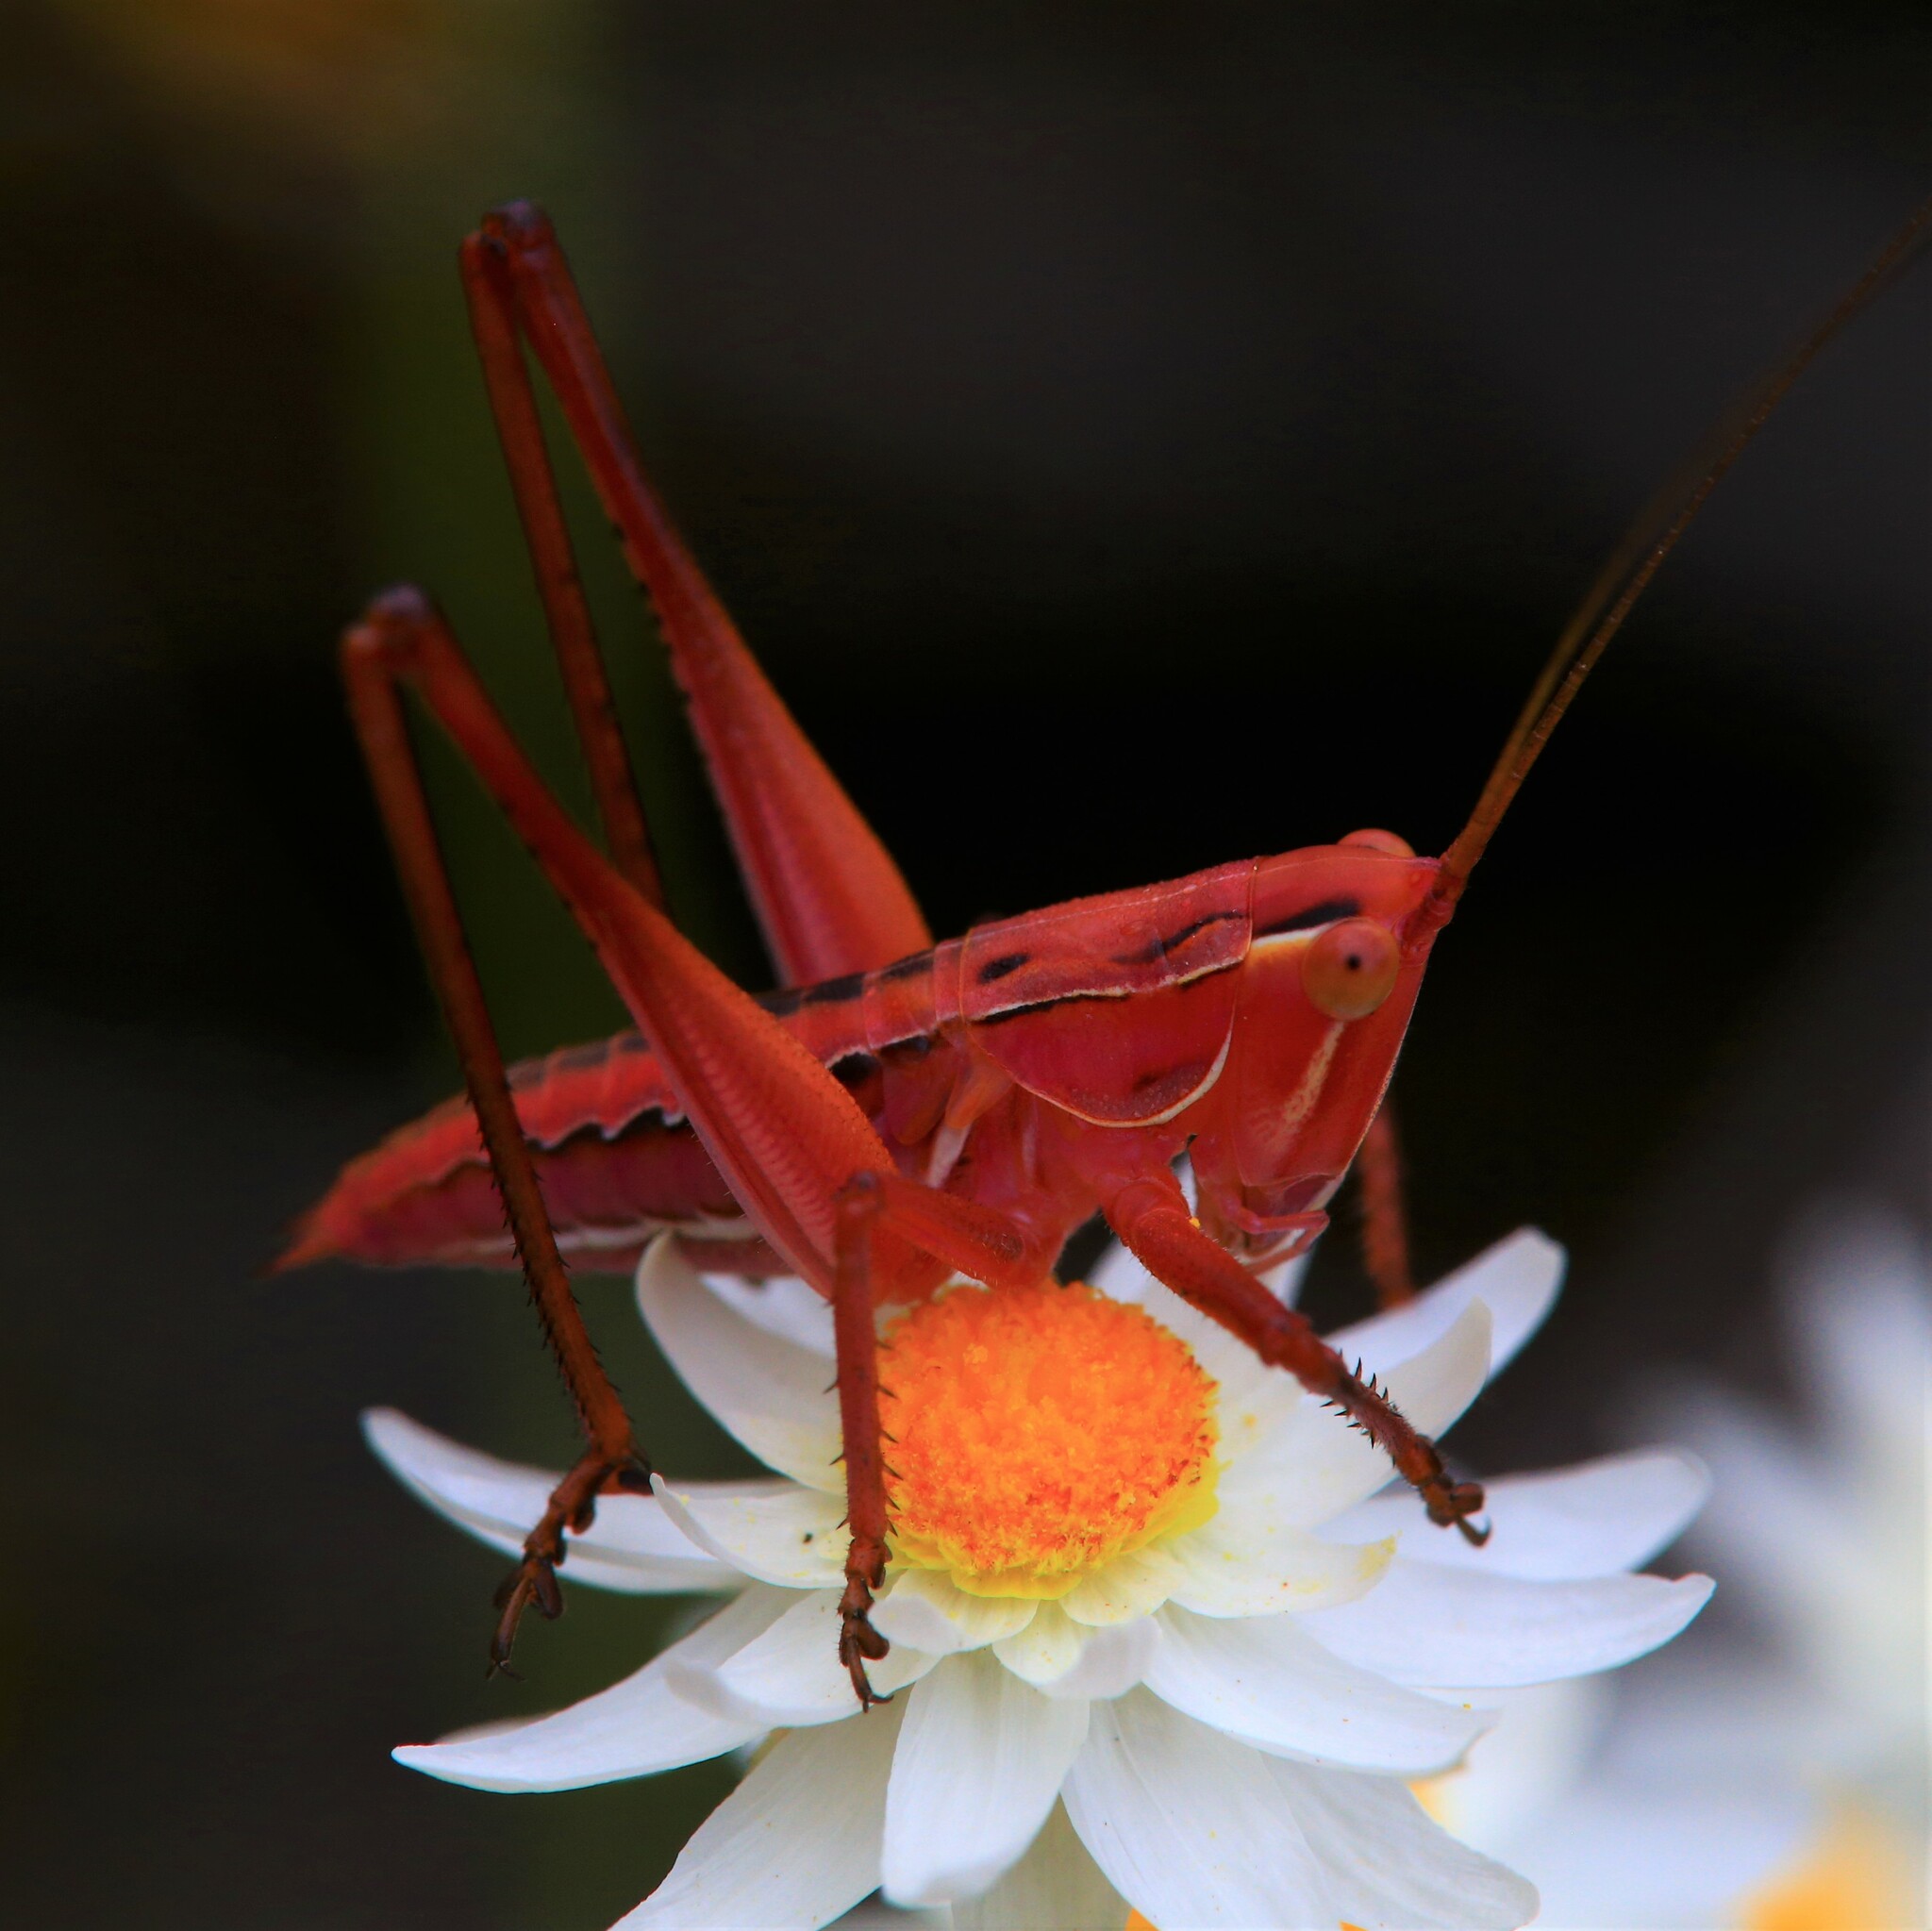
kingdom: Animalia
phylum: Arthropoda
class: Insecta
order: Orthoptera
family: Tettigoniidae
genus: Metaballus
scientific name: Metaballus frontalis
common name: Common marauding katydid
